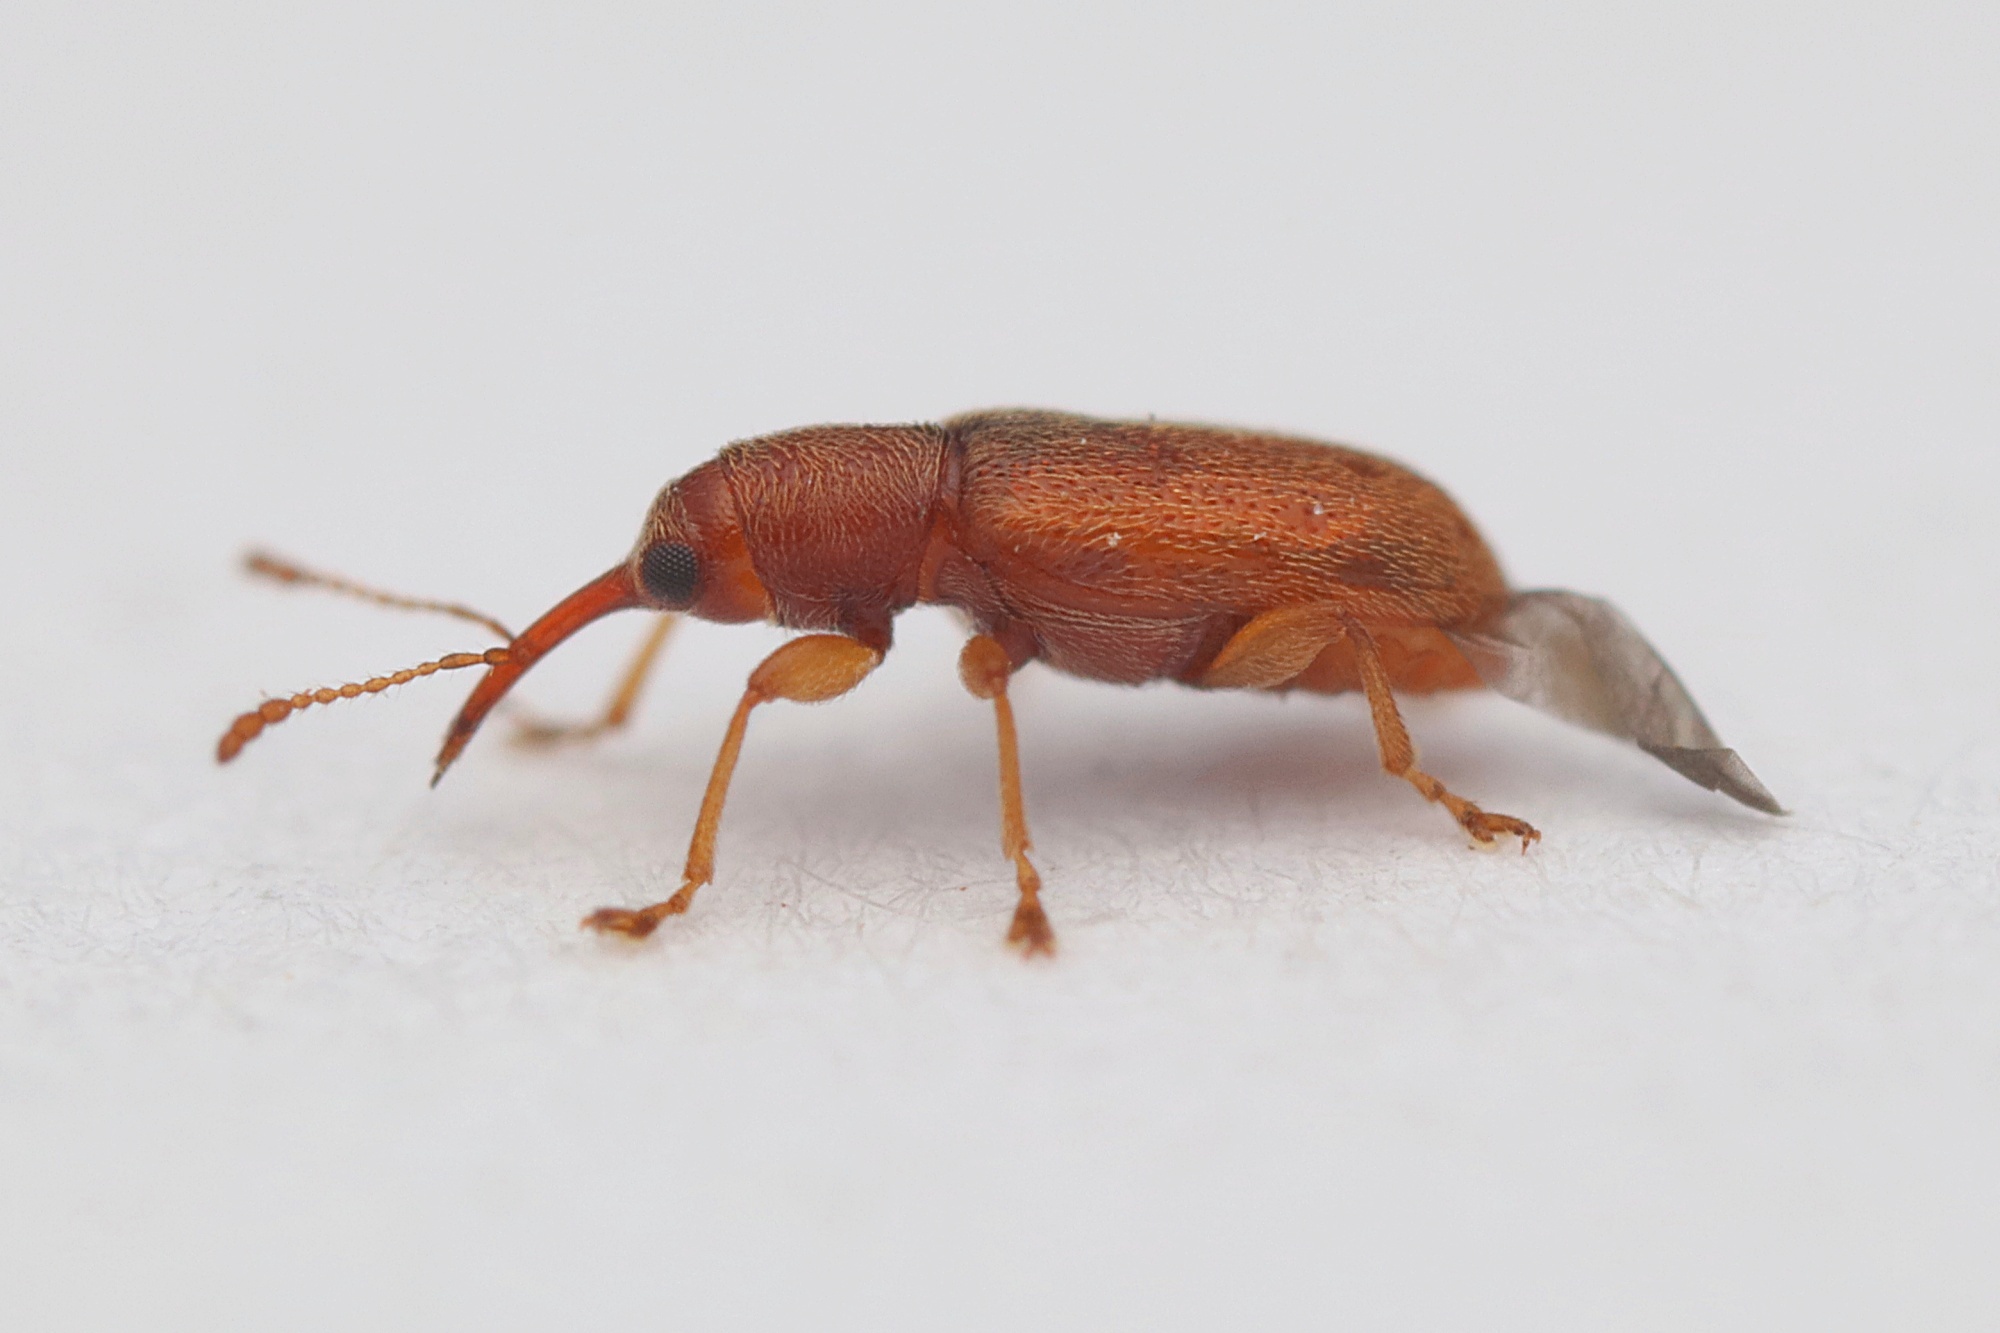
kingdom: Animalia
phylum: Arthropoda
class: Insecta
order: Coleoptera
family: Nemonychidae
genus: Rhinorhynchus
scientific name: Rhinorhynchus rufulus
